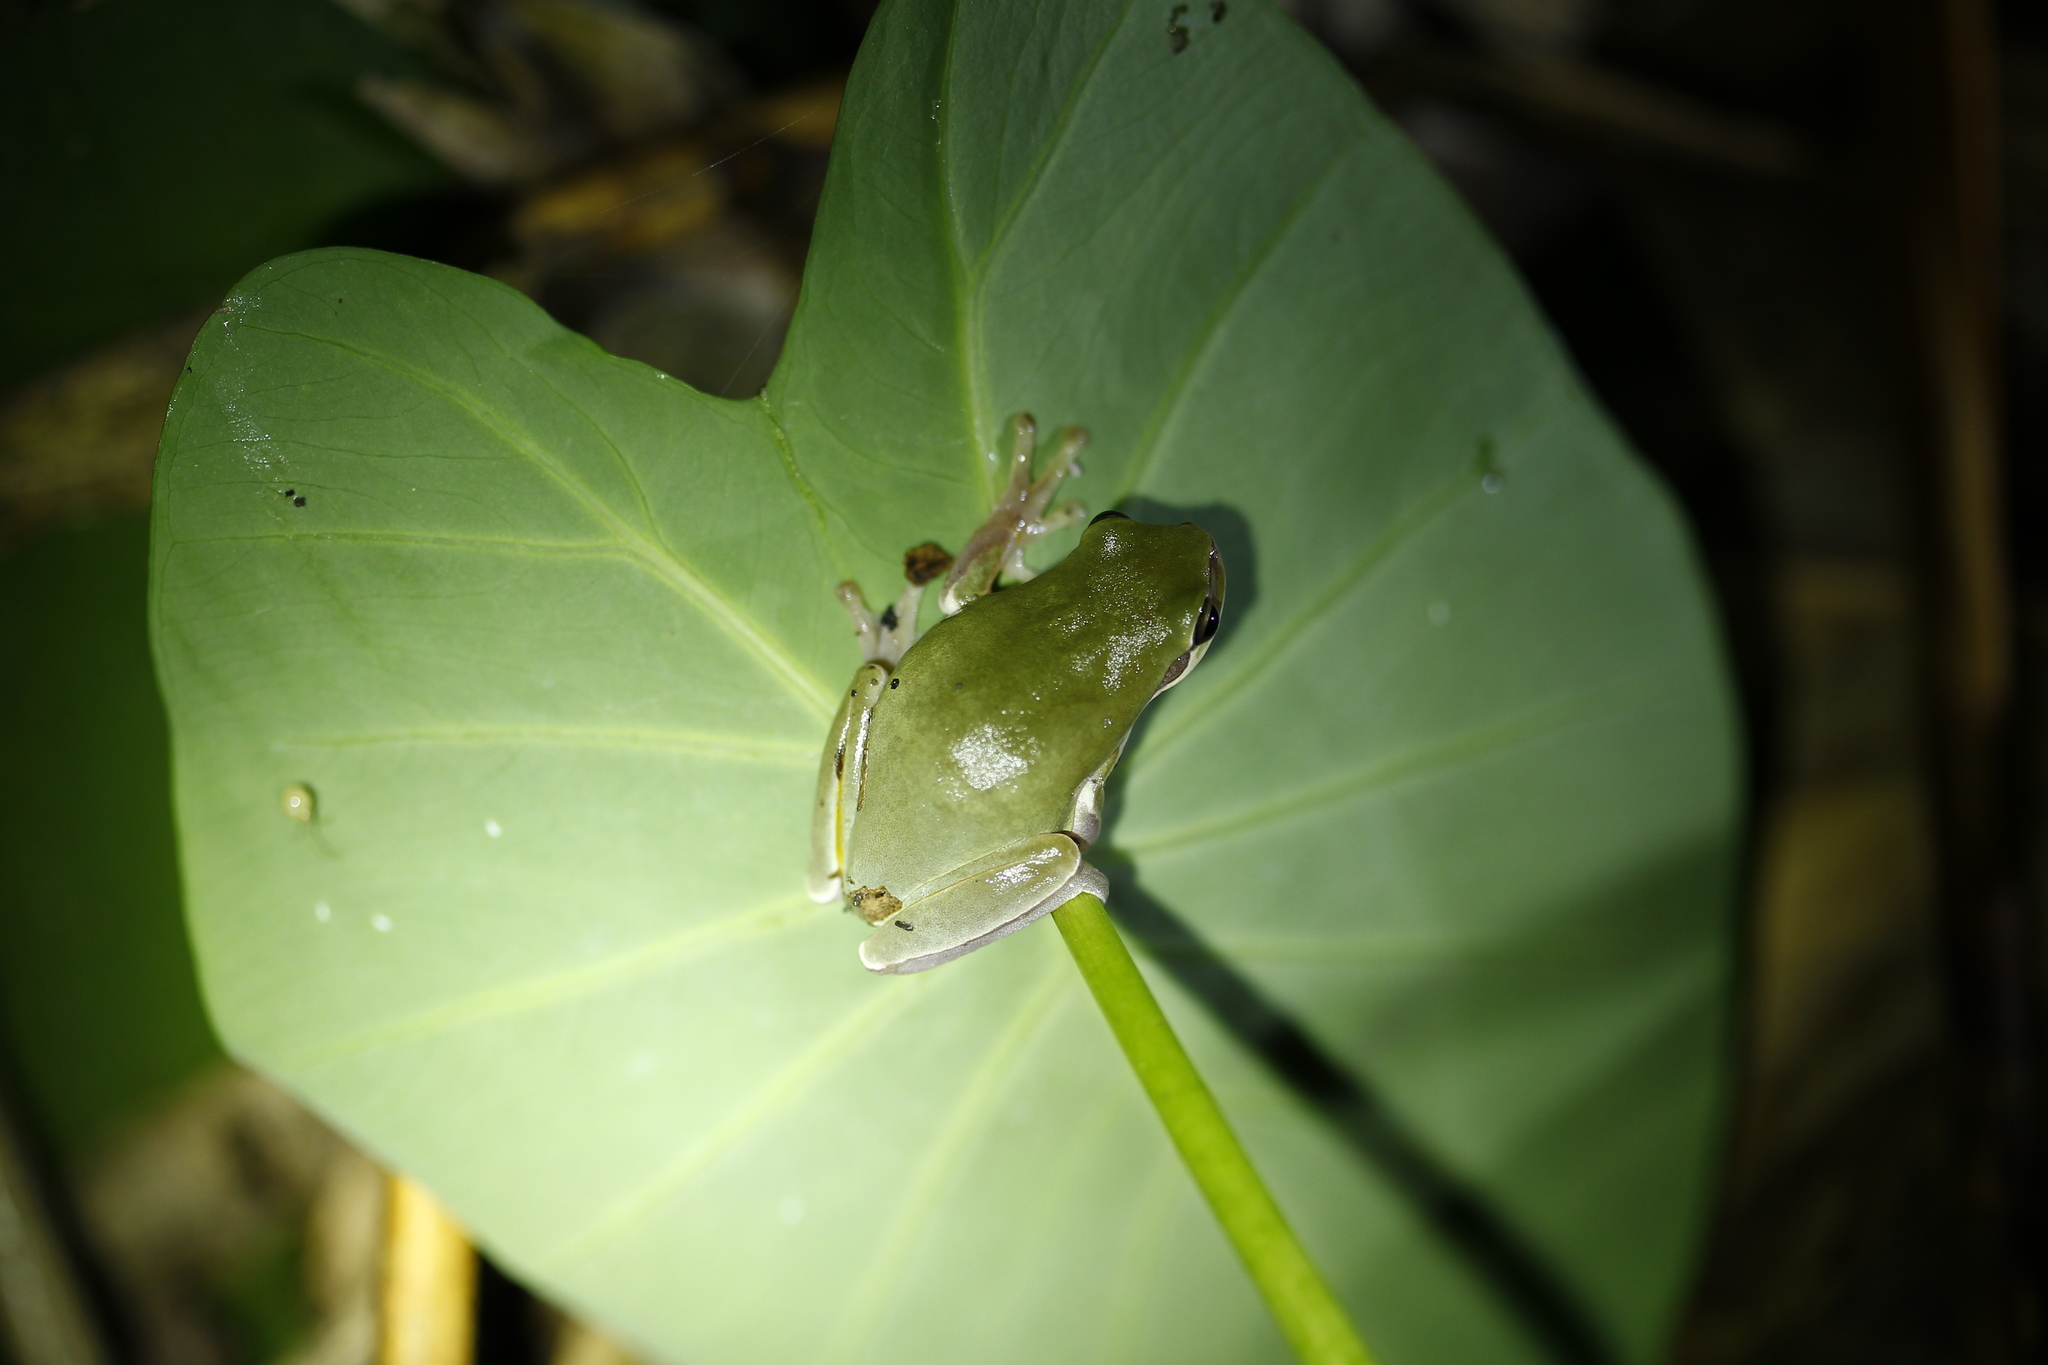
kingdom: Animalia
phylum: Chordata
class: Amphibia
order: Anura
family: Hylidae
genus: Hyla
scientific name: Hyla chinensis
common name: Common chinese treefrog
